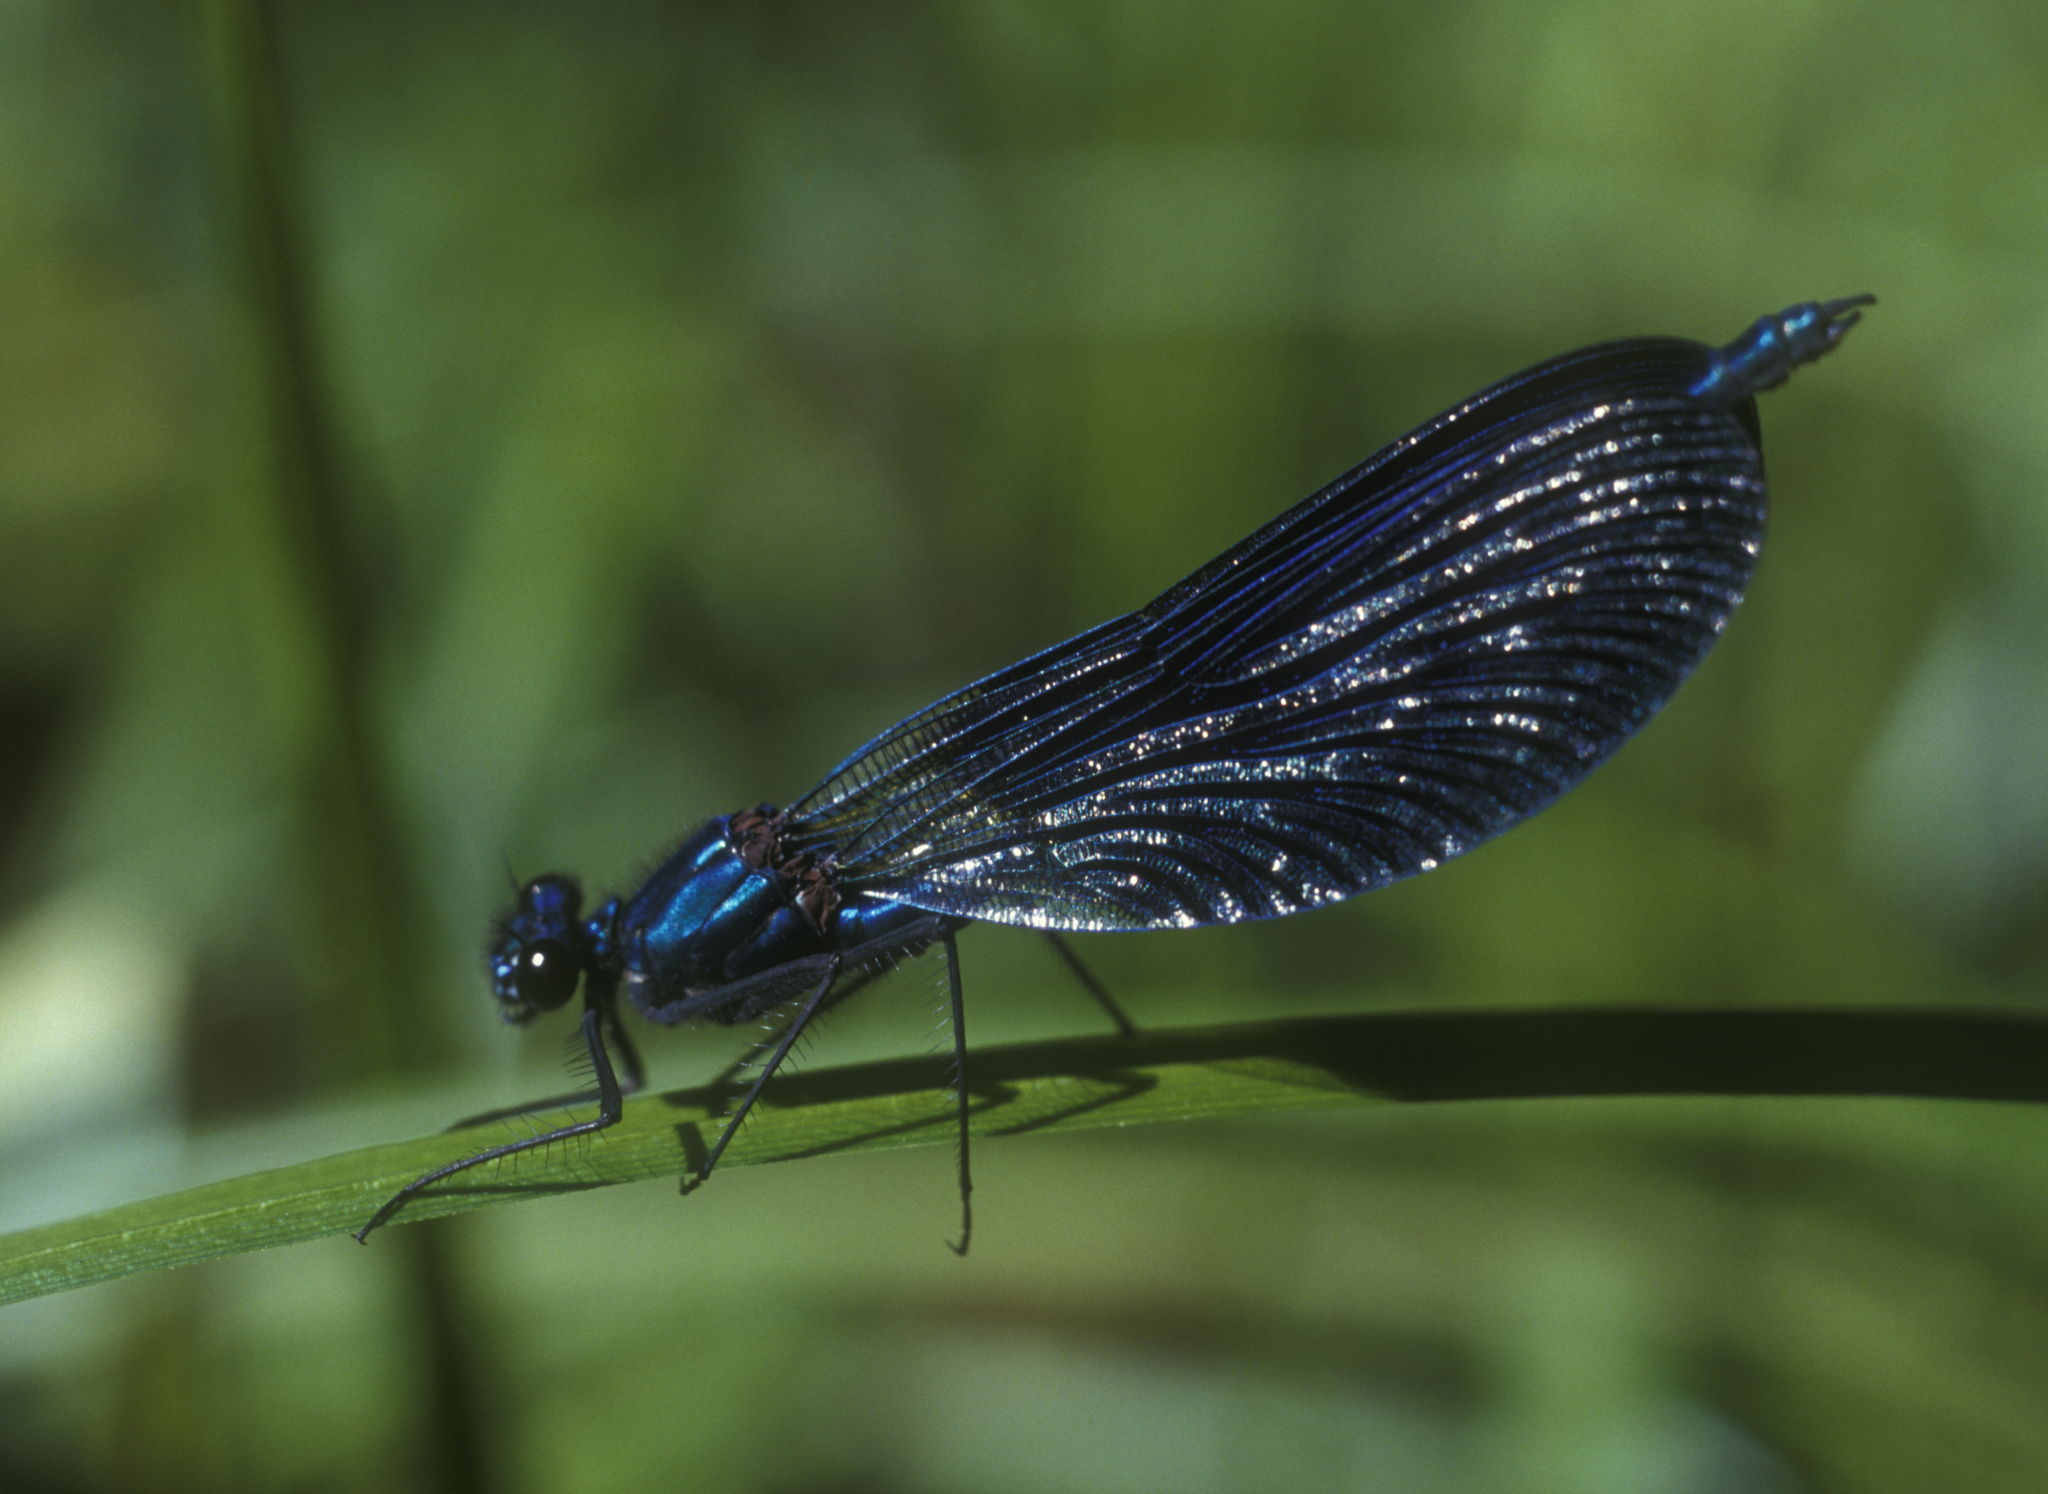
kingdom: Animalia
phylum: Arthropoda
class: Insecta
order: Odonata
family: Calopterygidae
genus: Calopteryx
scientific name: Calopteryx splendens
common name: Banded demoiselle
